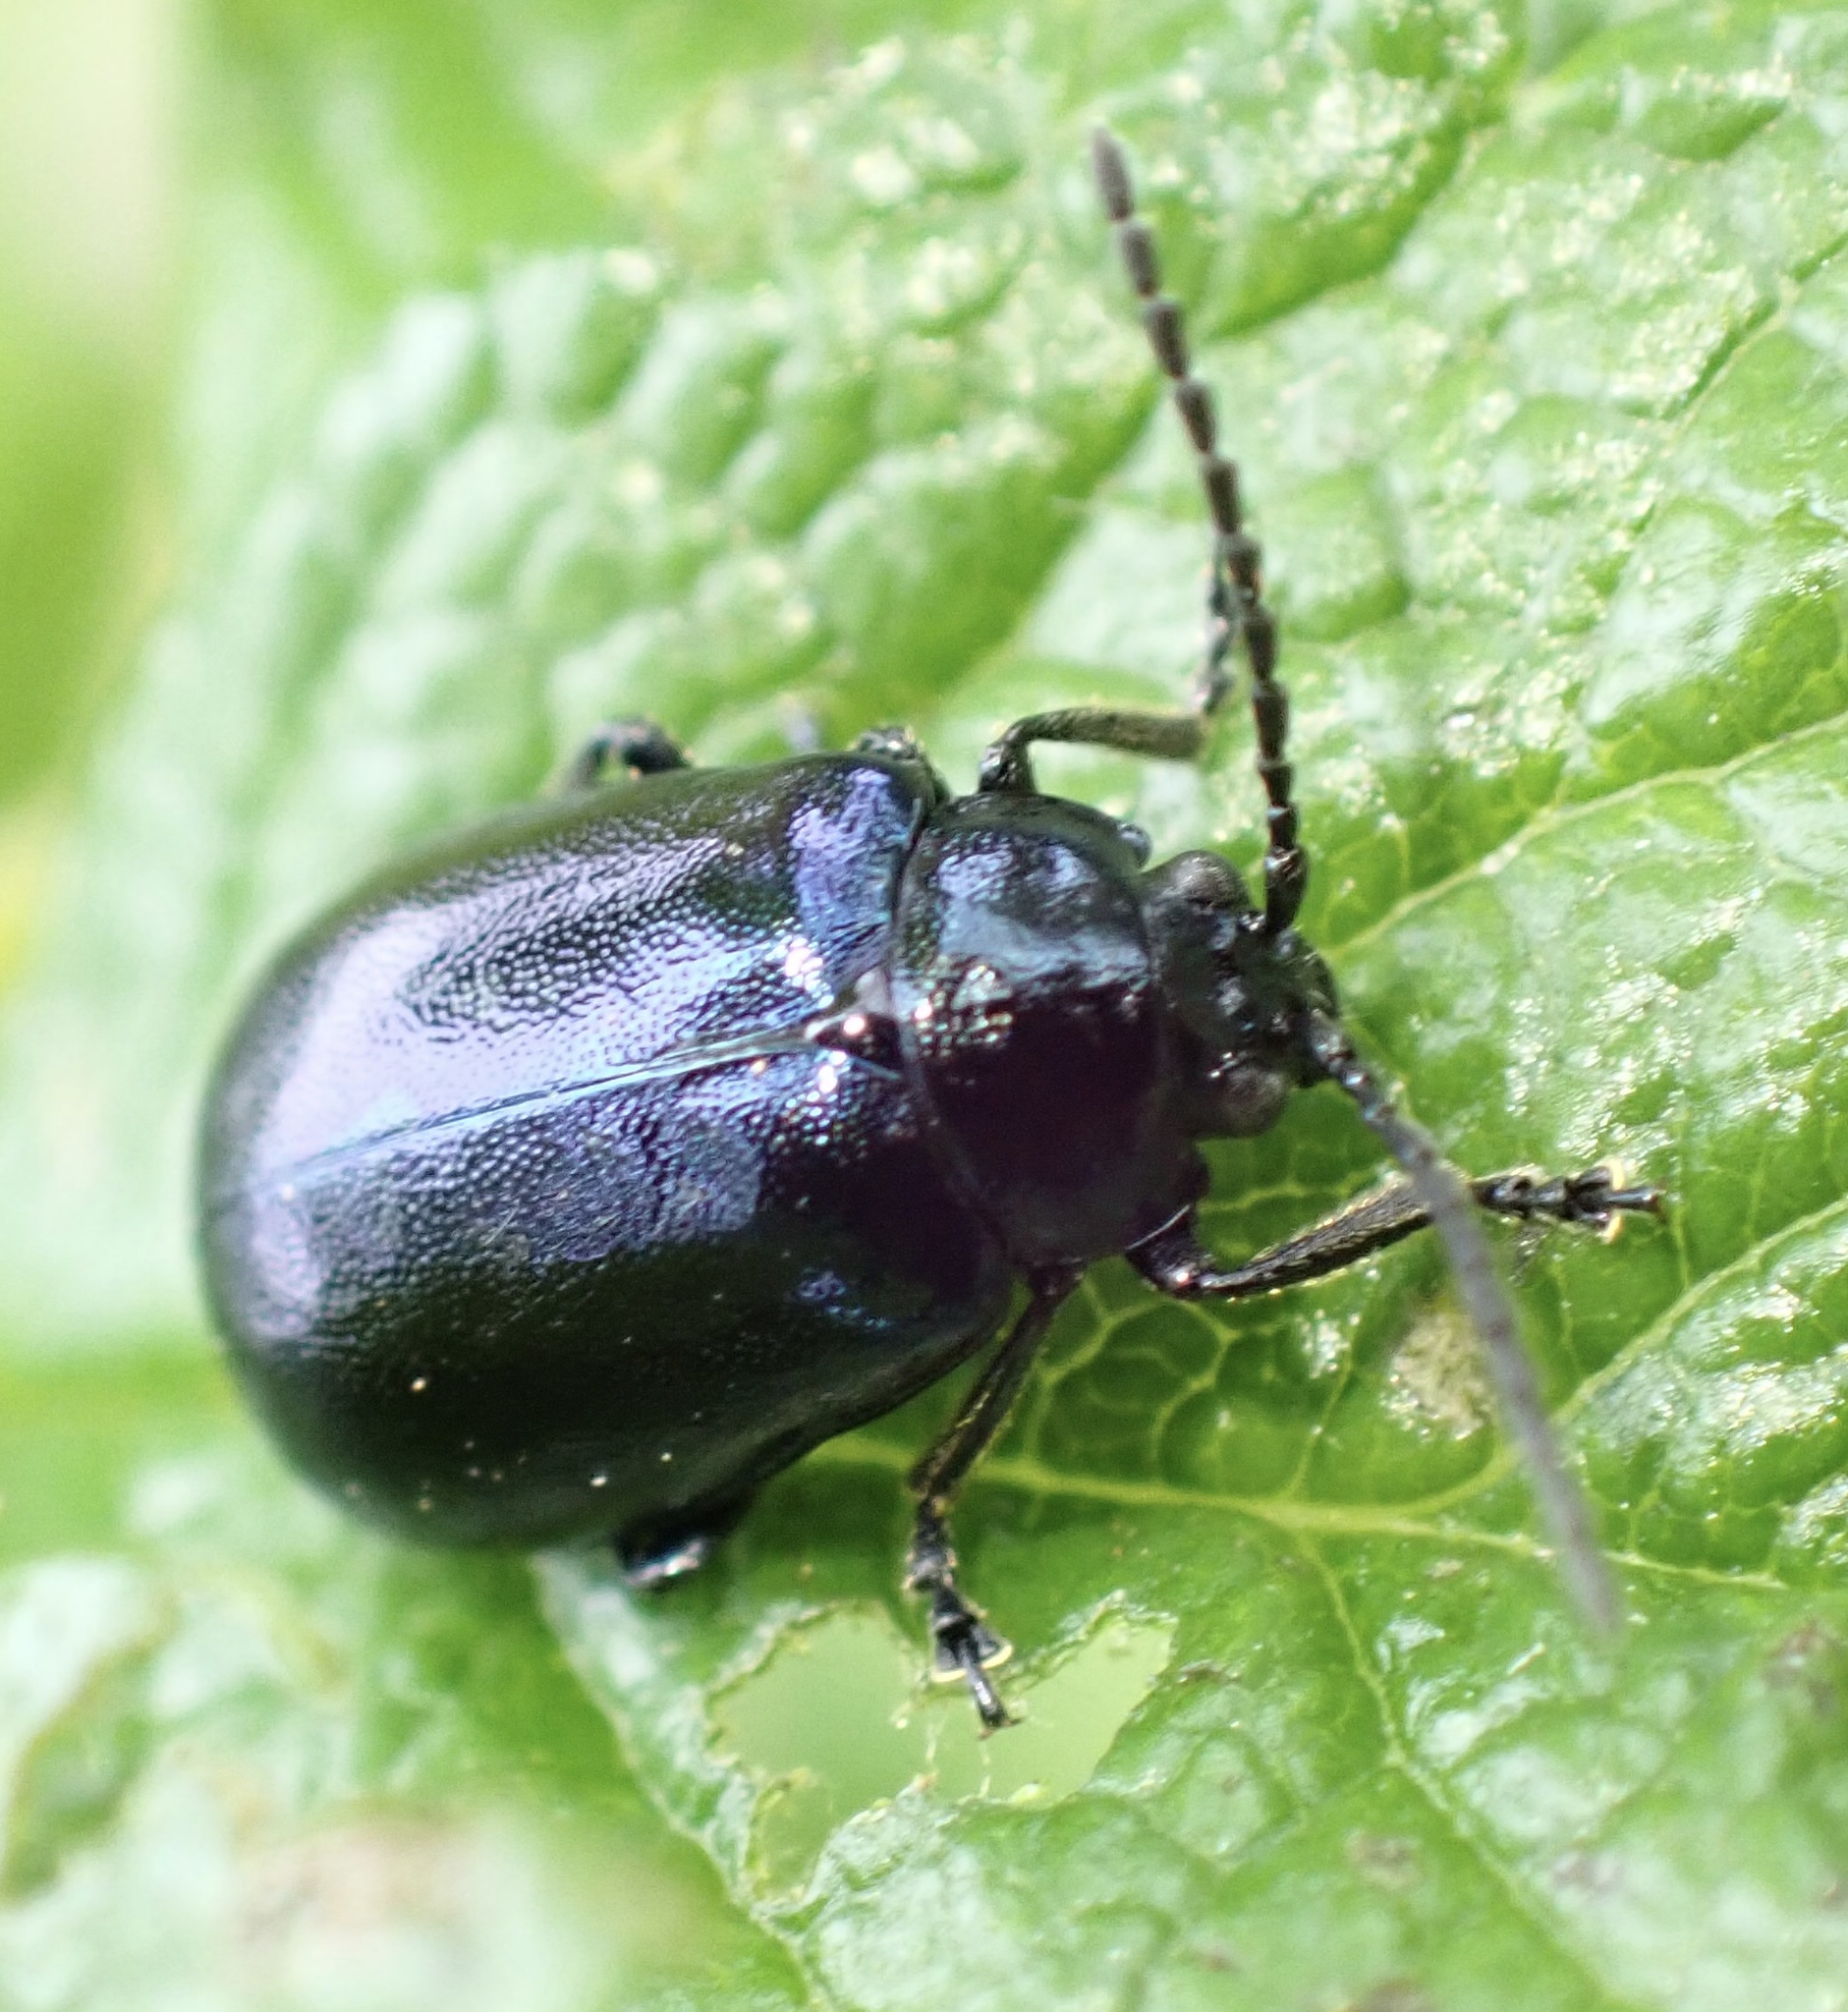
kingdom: Animalia
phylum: Arthropoda
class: Insecta
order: Coleoptera
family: Chrysomelidae
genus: Agelastica
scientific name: Agelastica alni
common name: Alder leaf beetle
